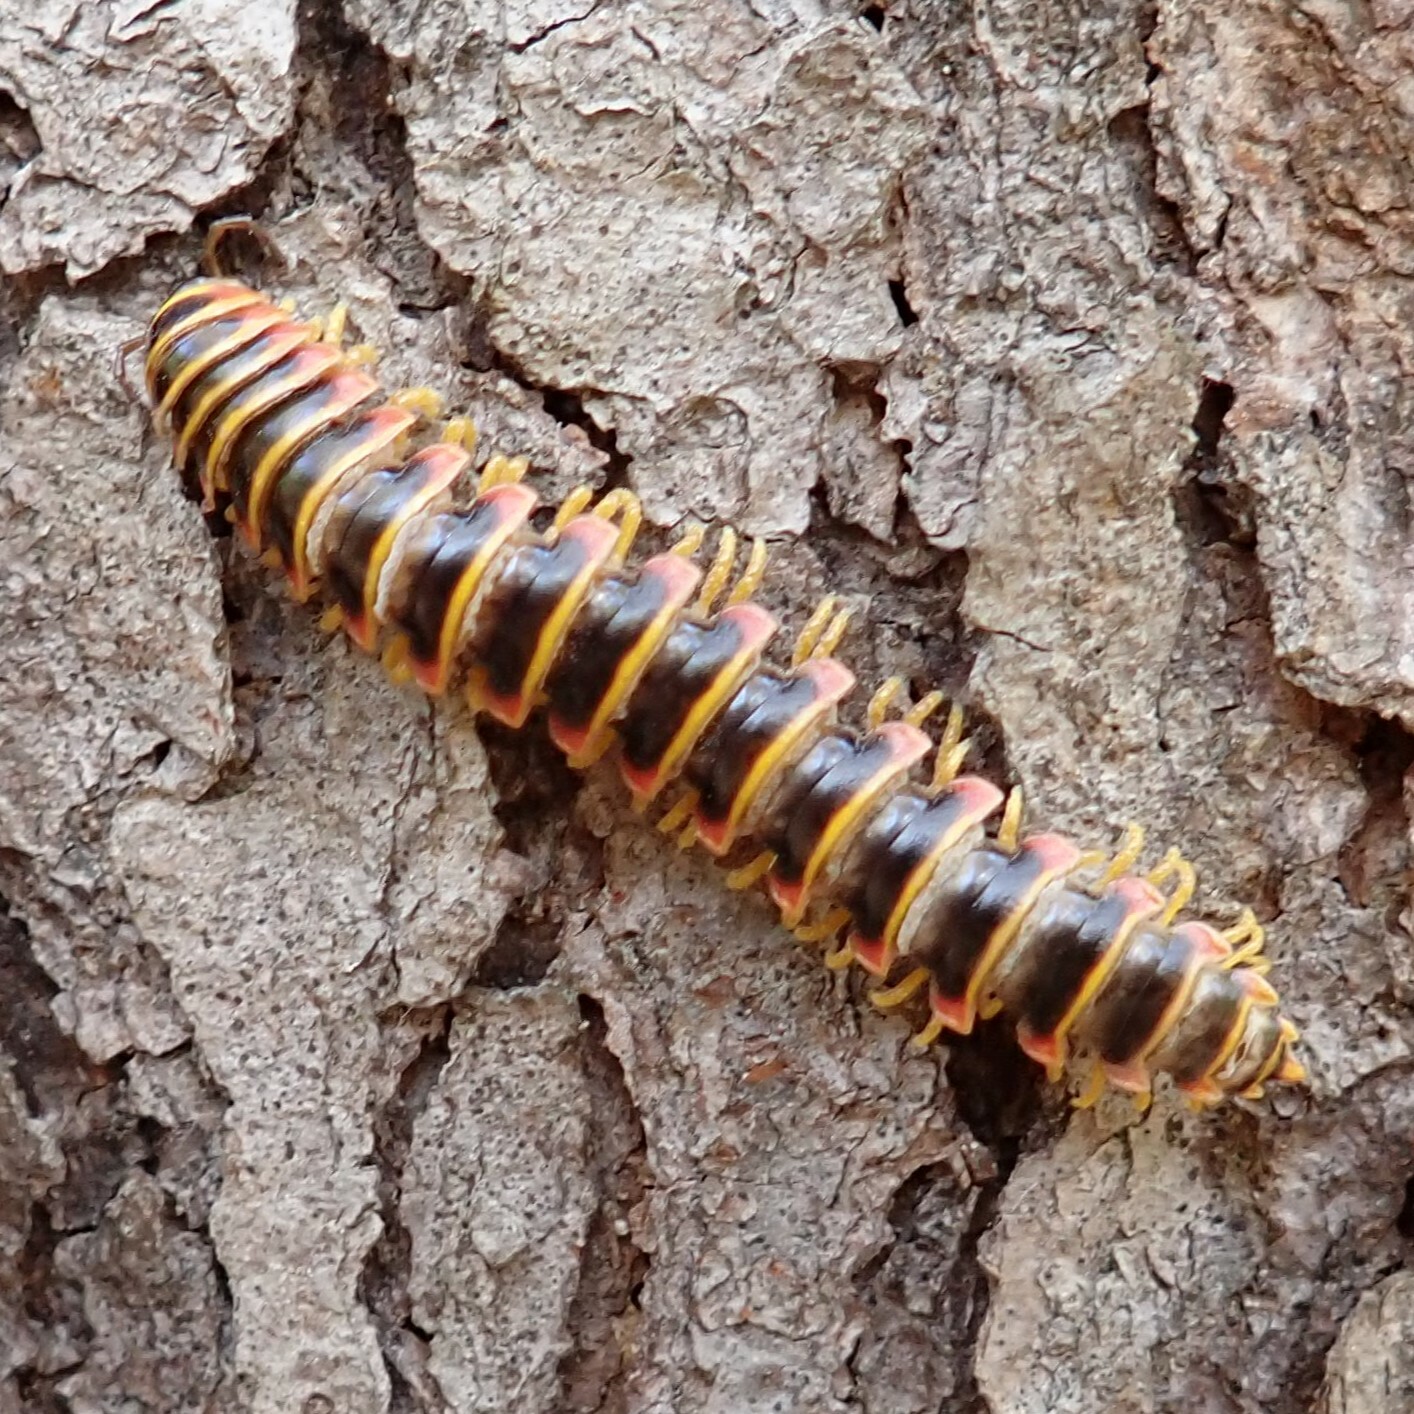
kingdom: Animalia
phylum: Arthropoda
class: Diplopoda
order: Polydesmida
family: Xystodesmidae
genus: Apheloria
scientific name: Apheloria virginiensis
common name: Black-and-gold flat millipede
